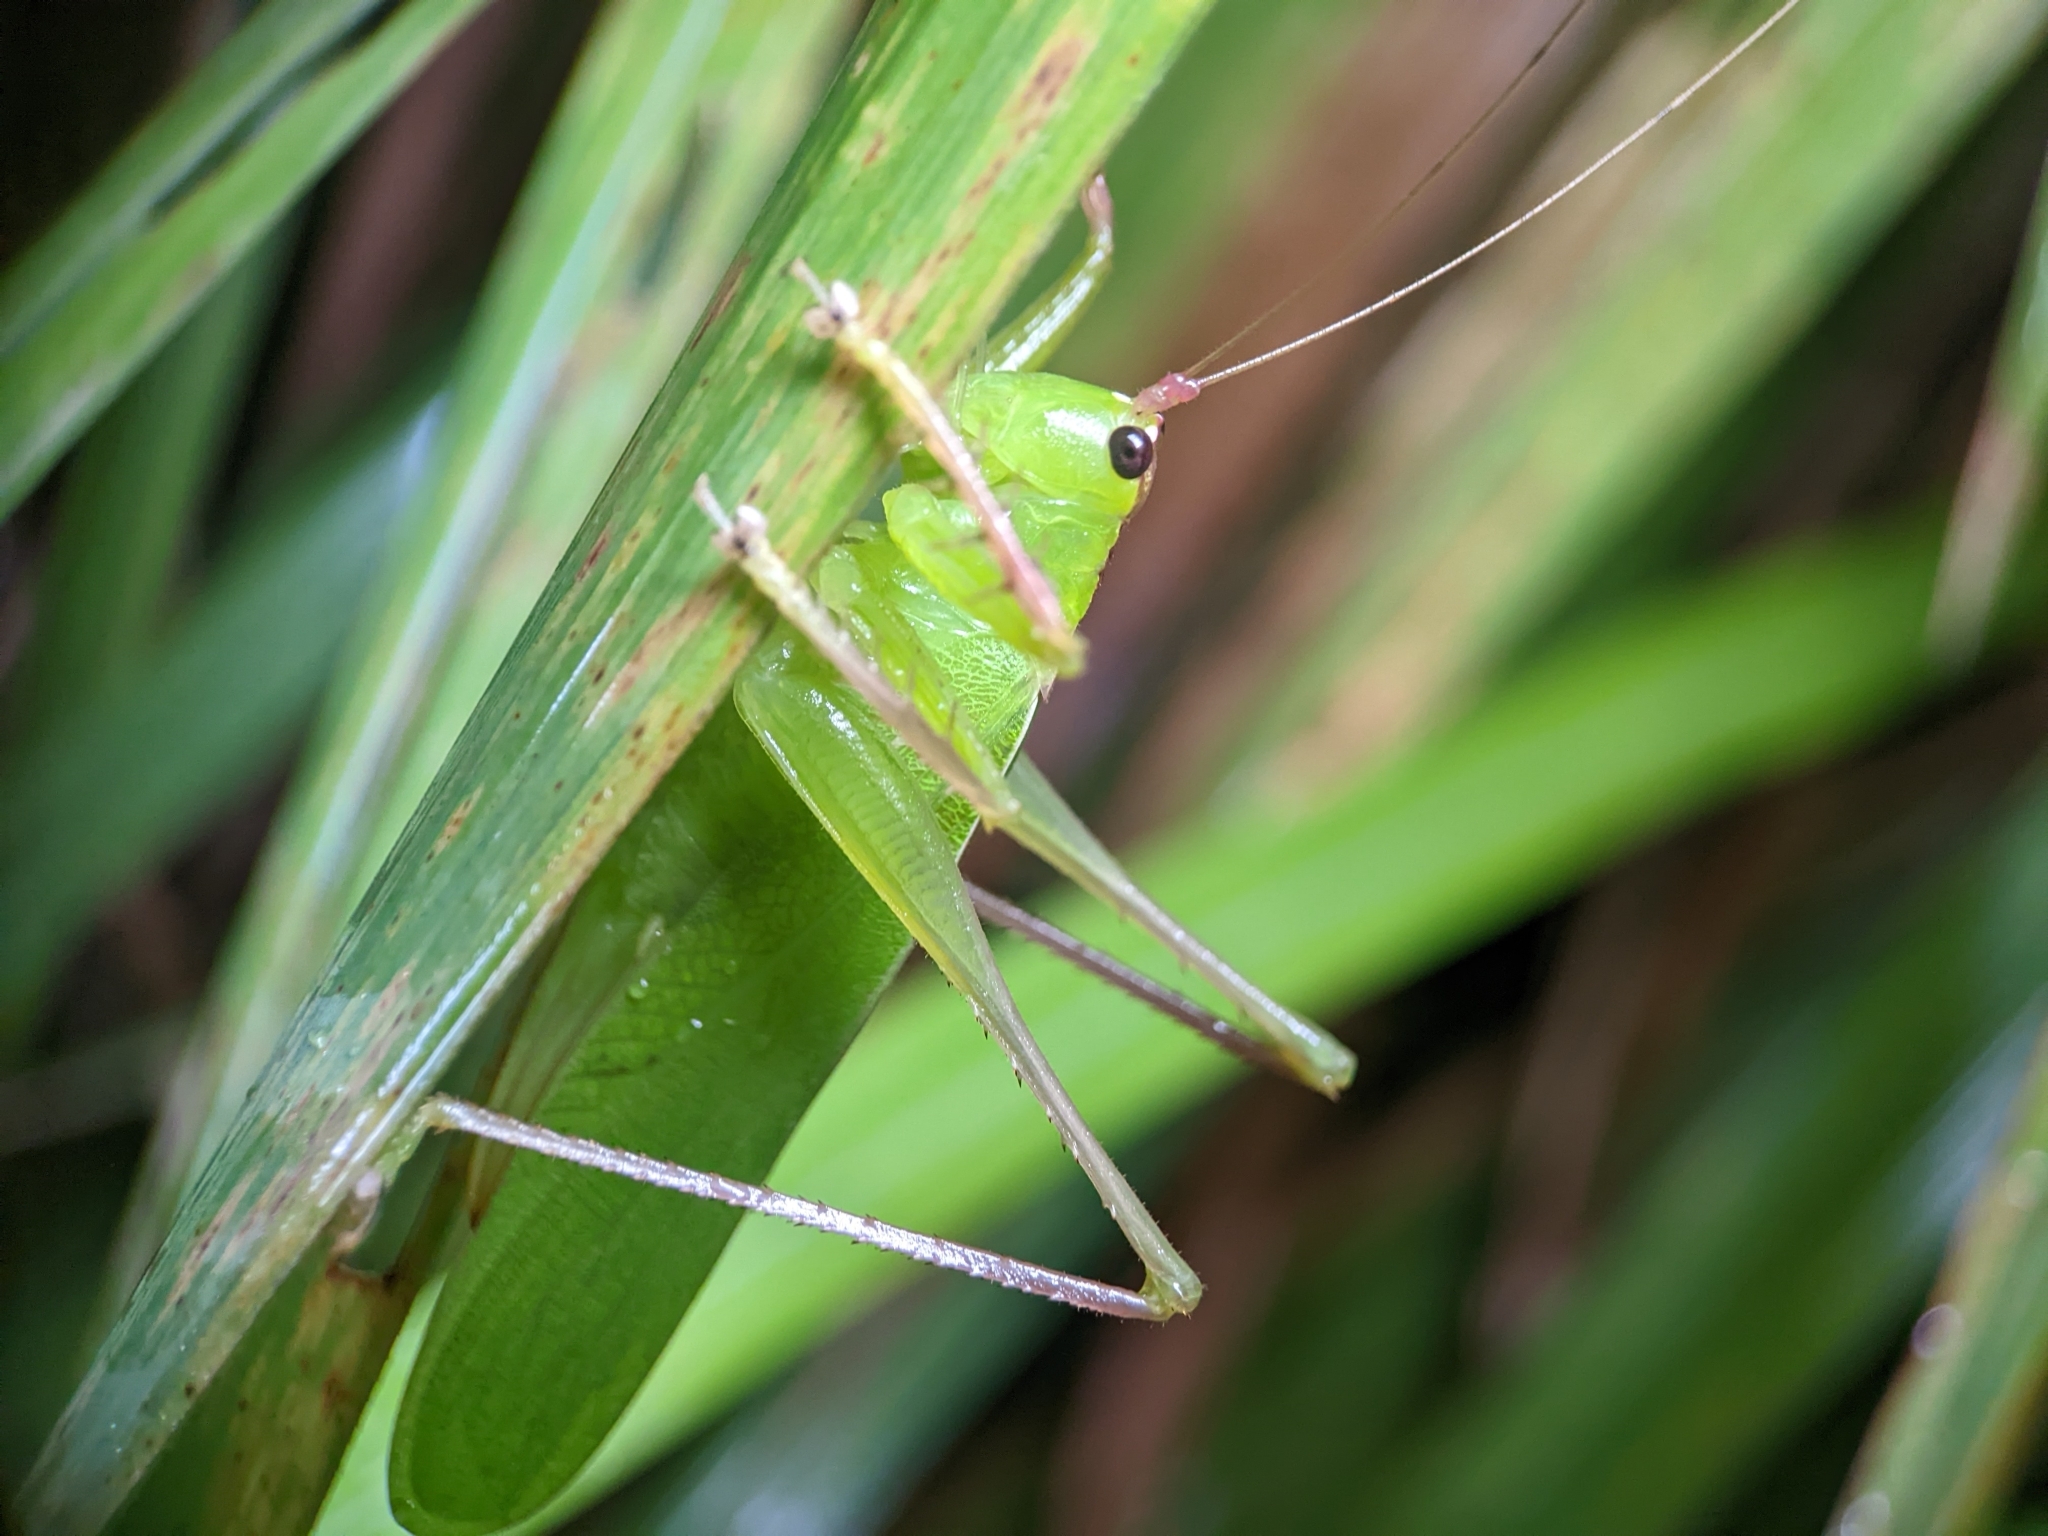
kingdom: Animalia
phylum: Arthropoda
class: Insecta
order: Orthoptera
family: Tettigoniidae
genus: Hexacentrus
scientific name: Hexacentrus unicolor
